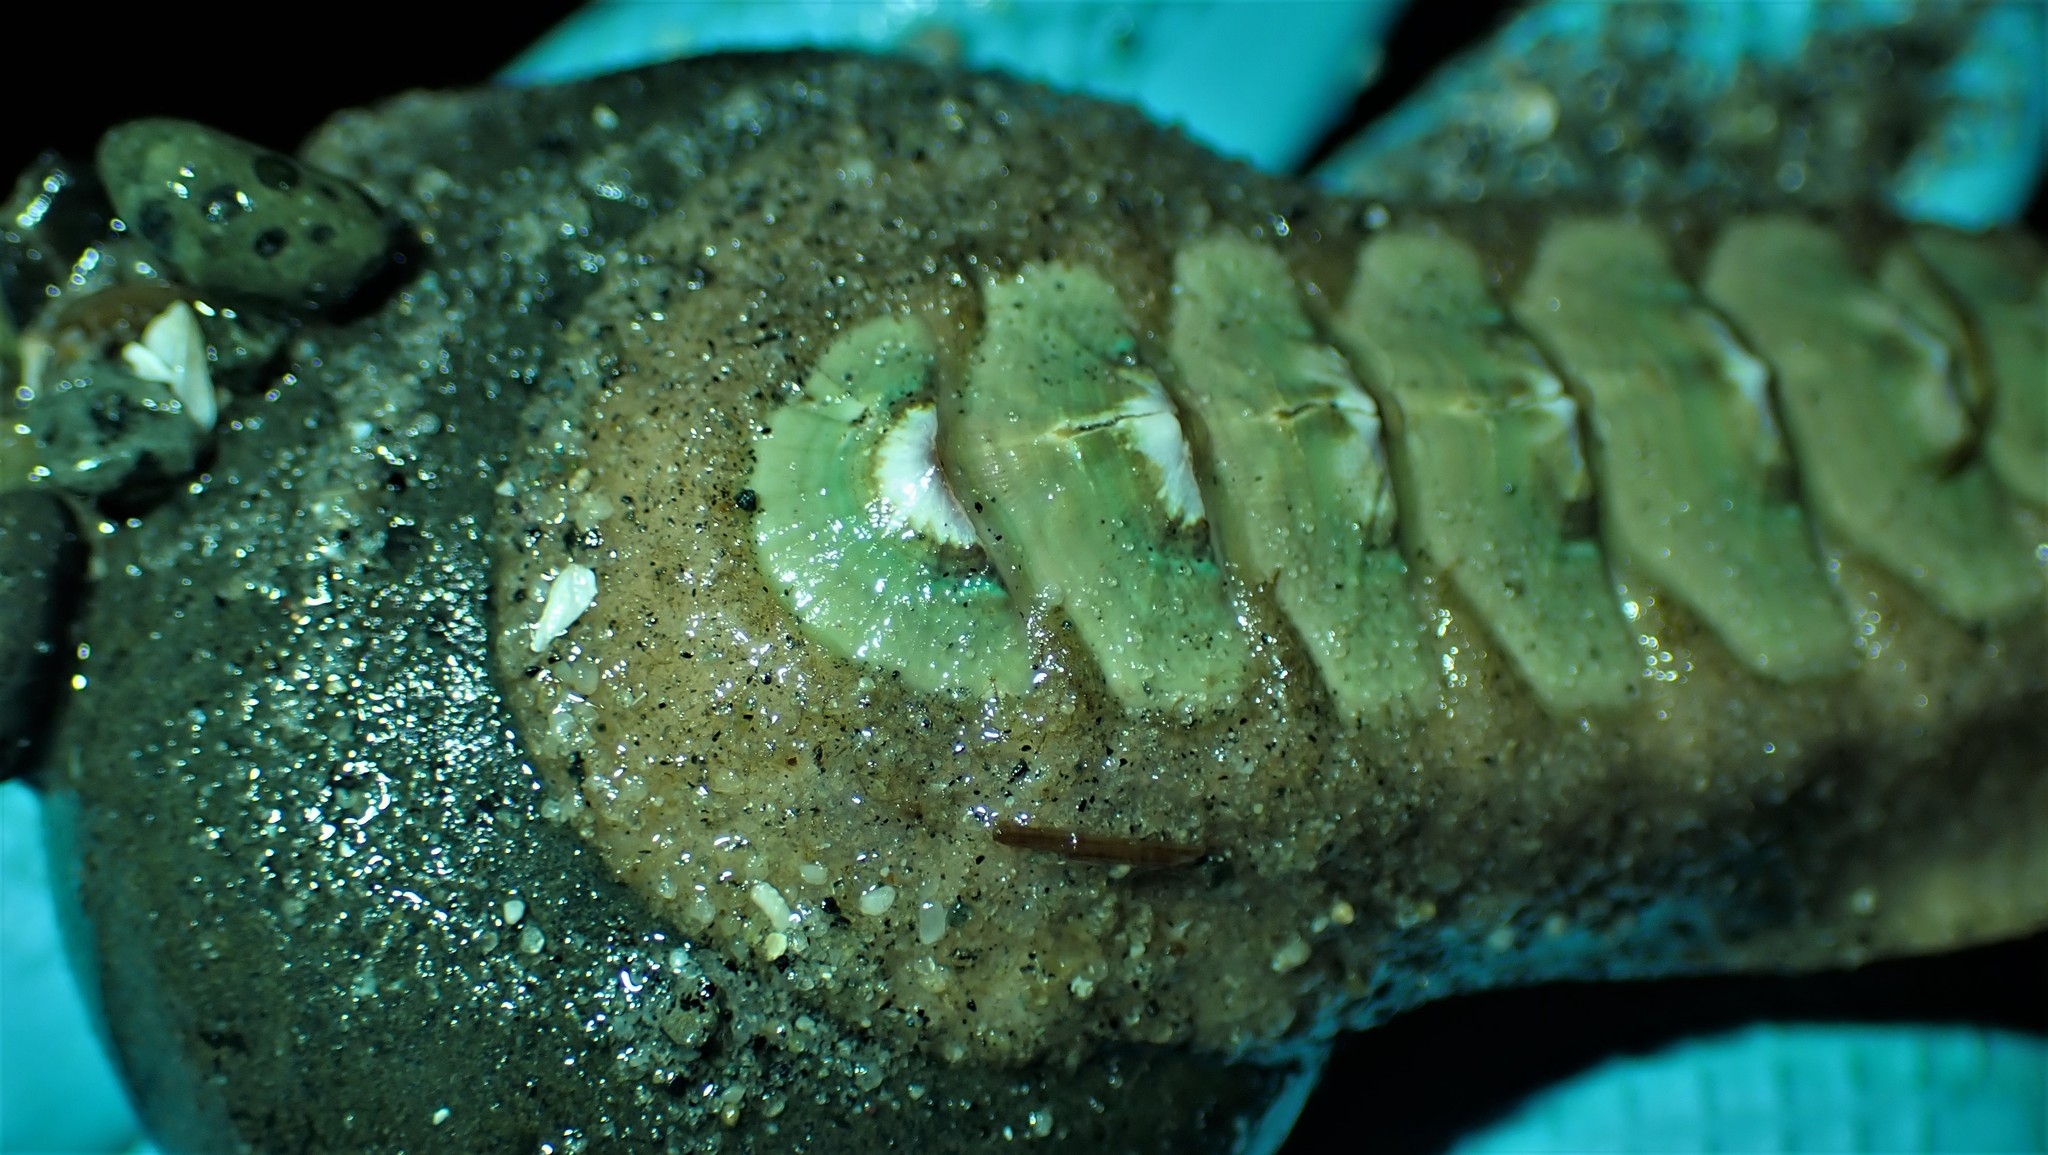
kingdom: Animalia
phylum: Mollusca
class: Polyplacophora
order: Chitonida
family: Mopaliidae
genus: Mopalia
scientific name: Mopalia swanii
